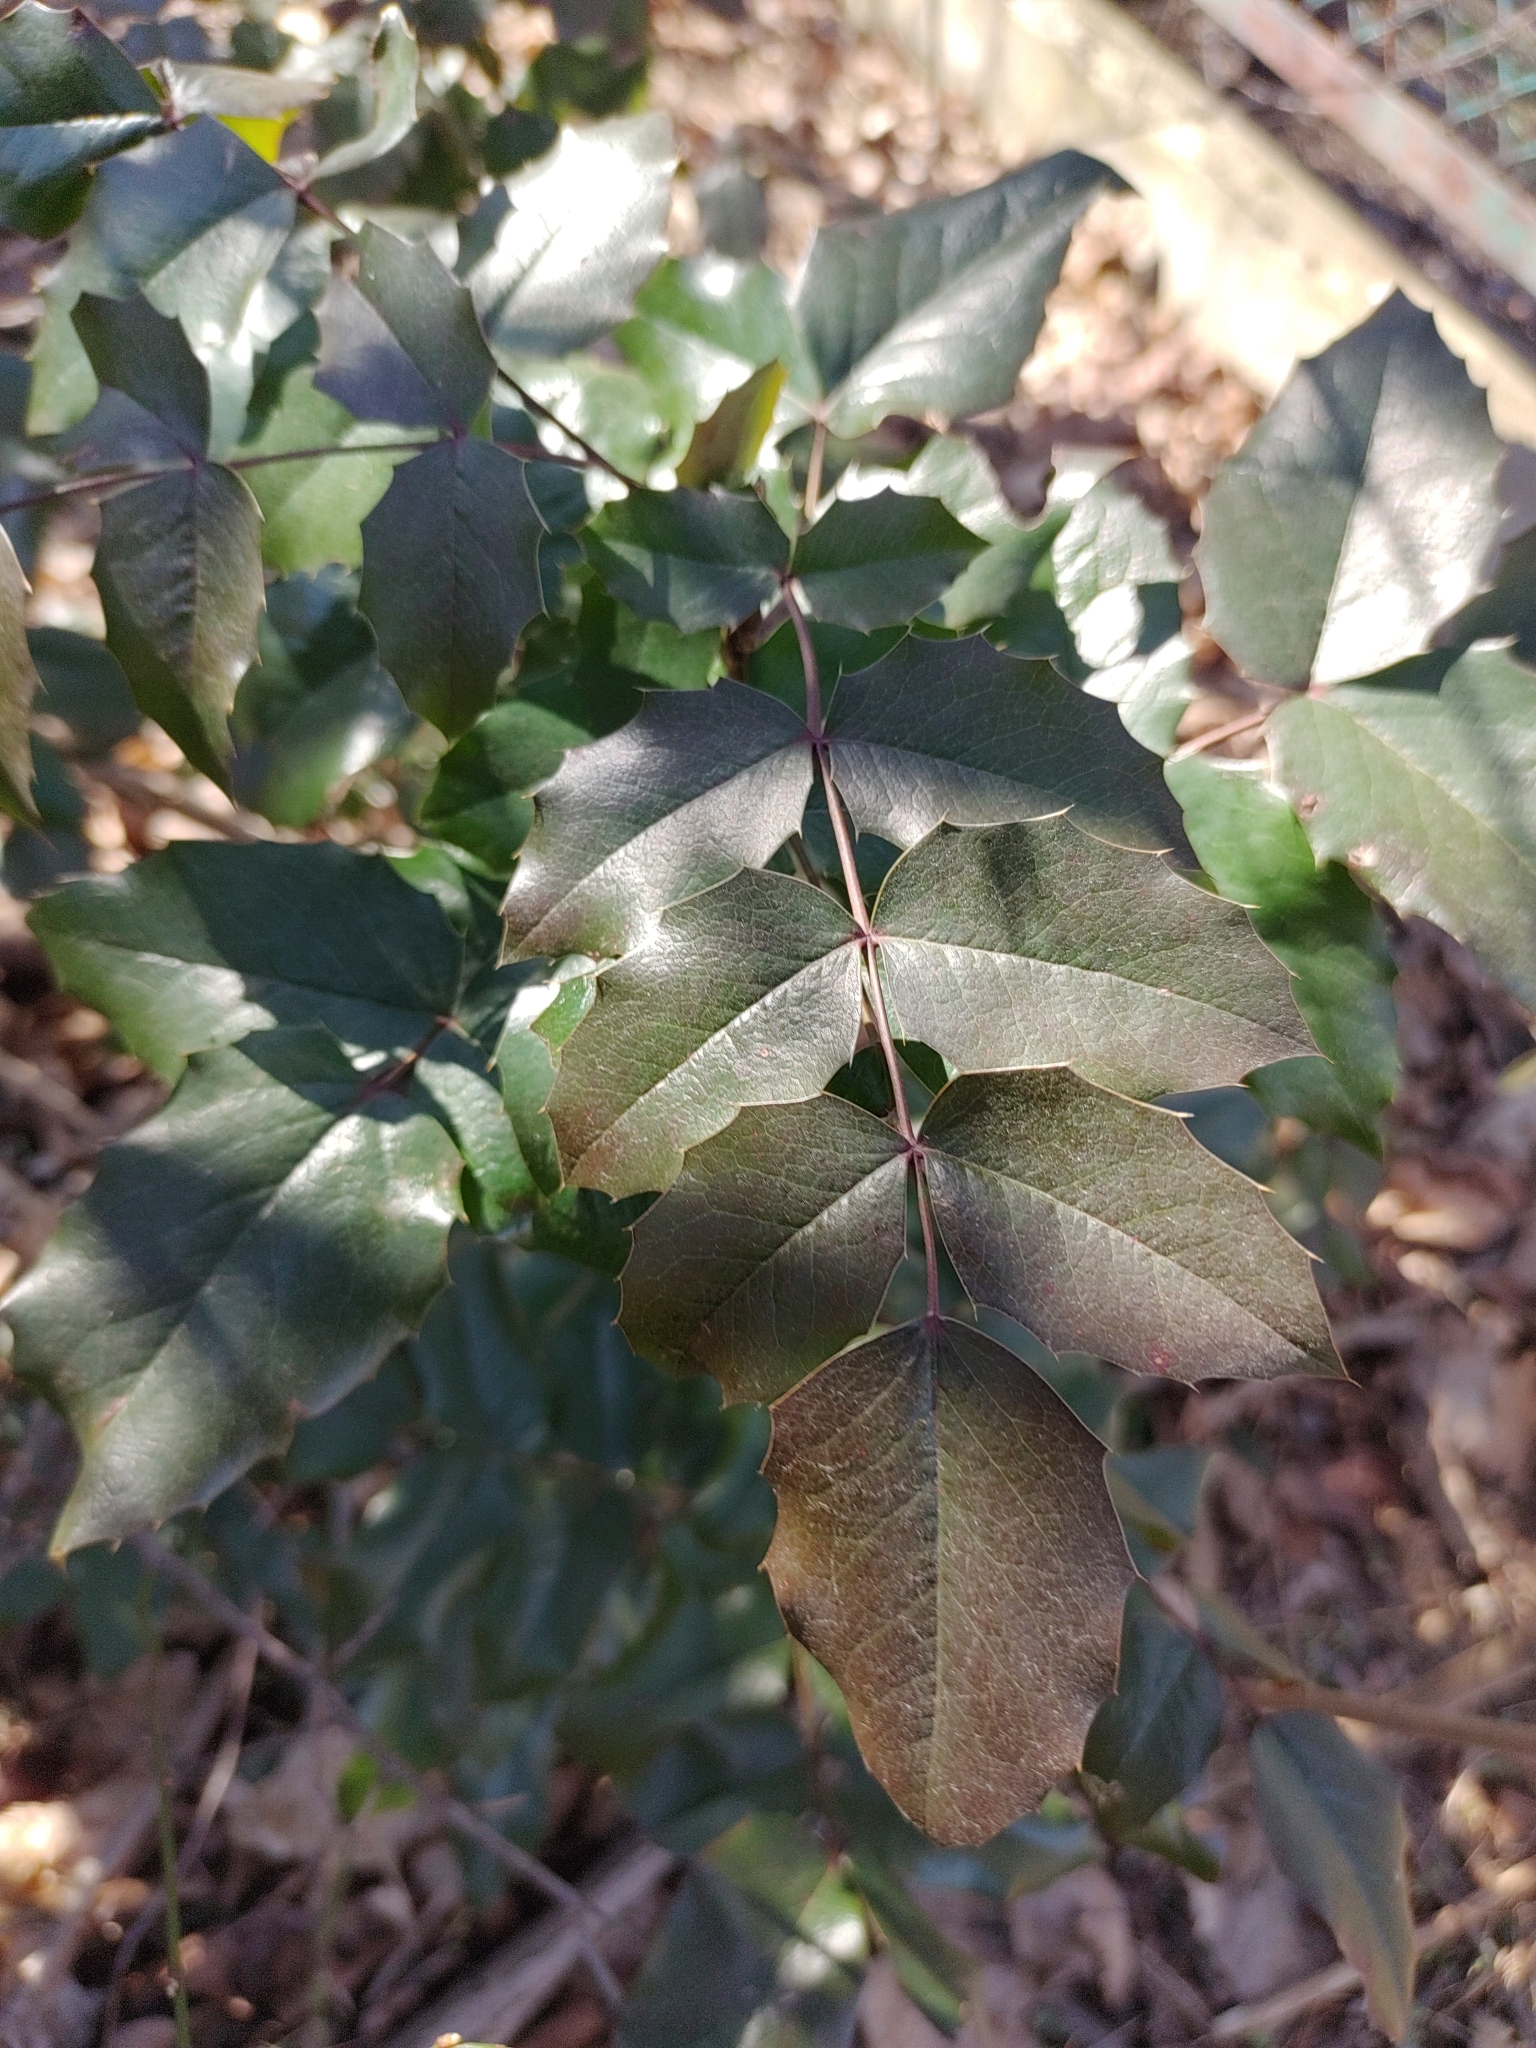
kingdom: Plantae
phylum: Tracheophyta
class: Magnoliopsida
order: Ranunculales
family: Berberidaceae
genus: Mahonia
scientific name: Mahonia aquifolium
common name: Oregon-grape
